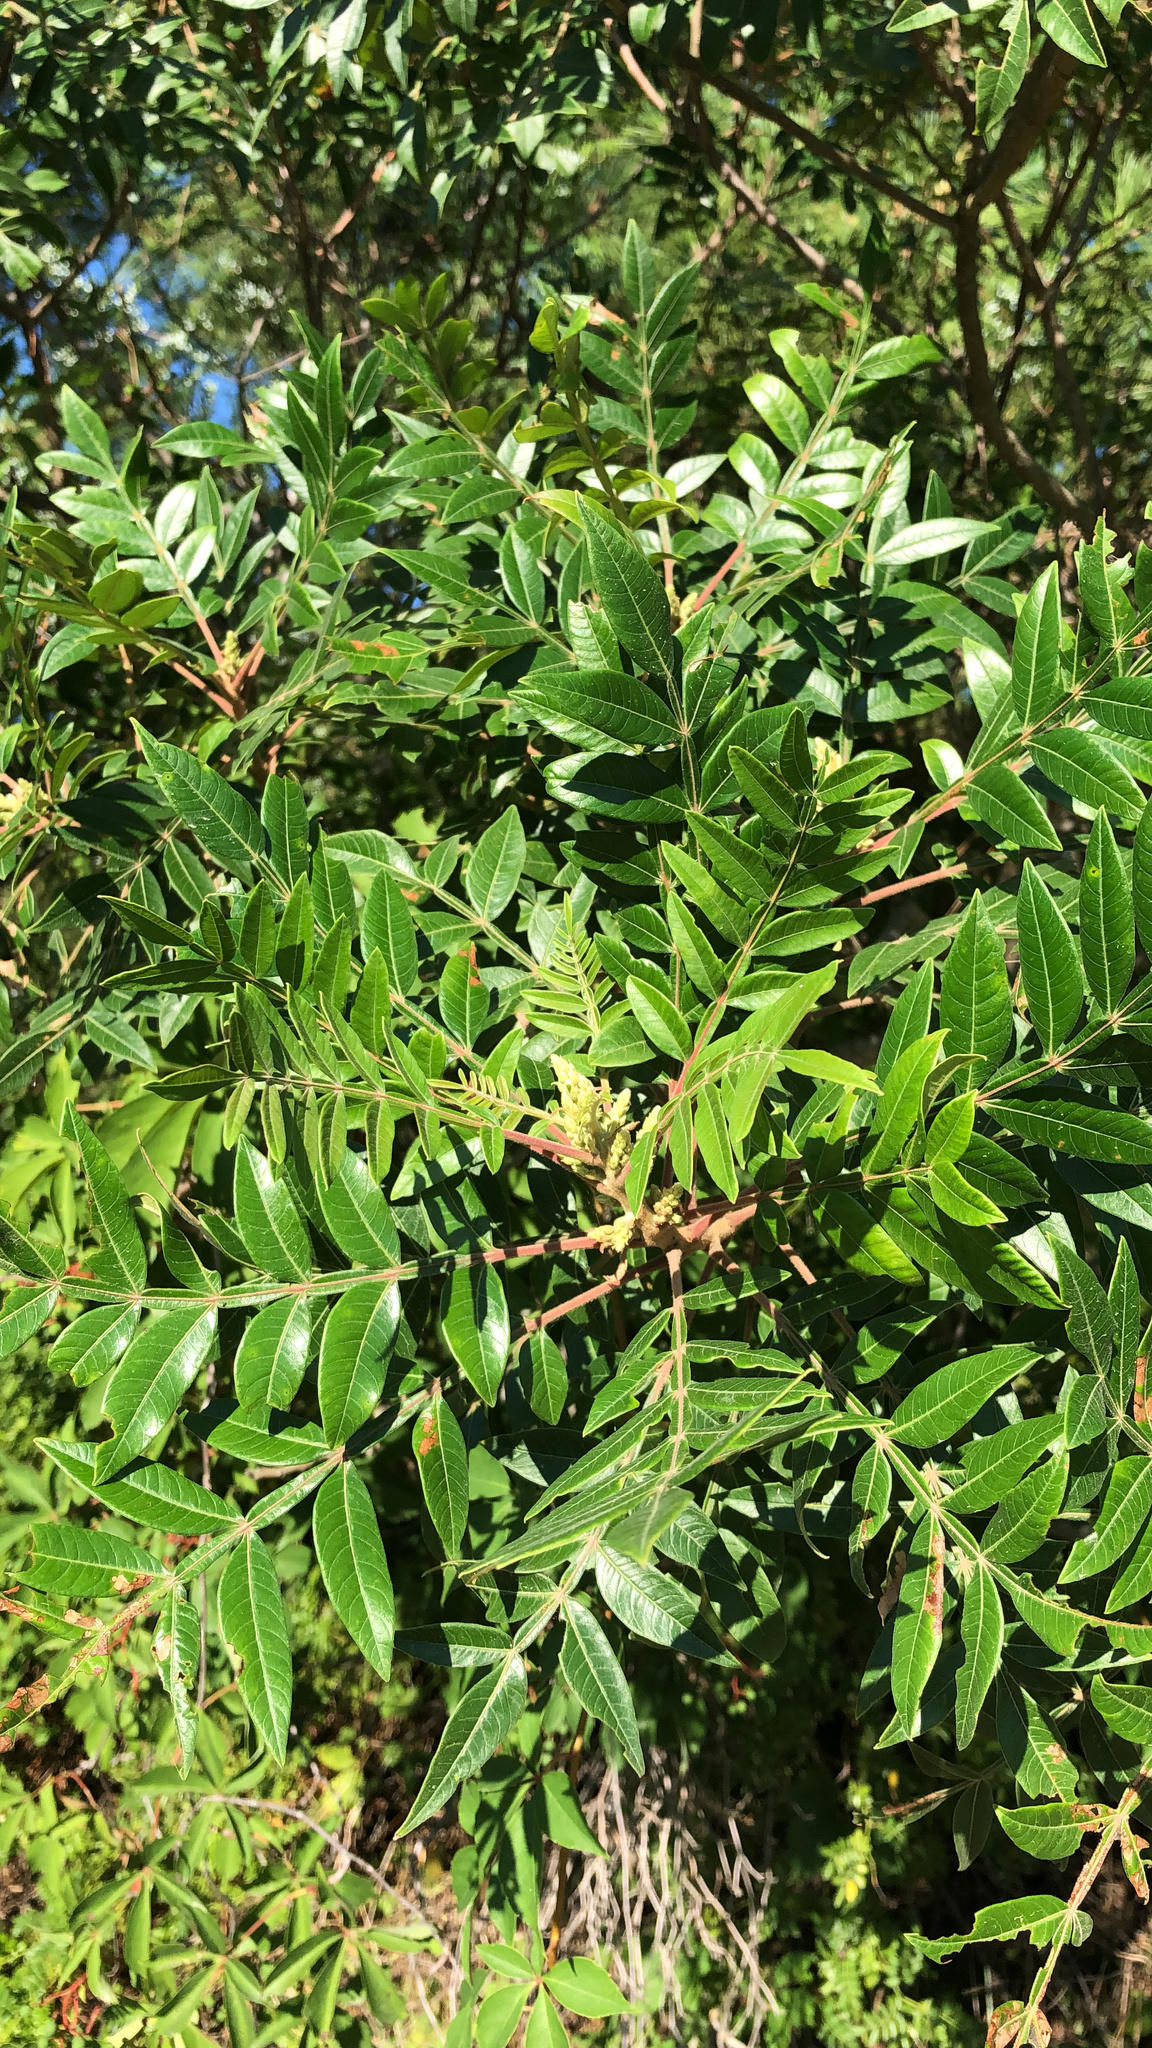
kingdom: Plantae
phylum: Tracheophyta
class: Magnoliopsida
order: Sapindales
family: Anacardiaceae
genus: Rhus
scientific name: Rhus copallina
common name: Shining sumac
